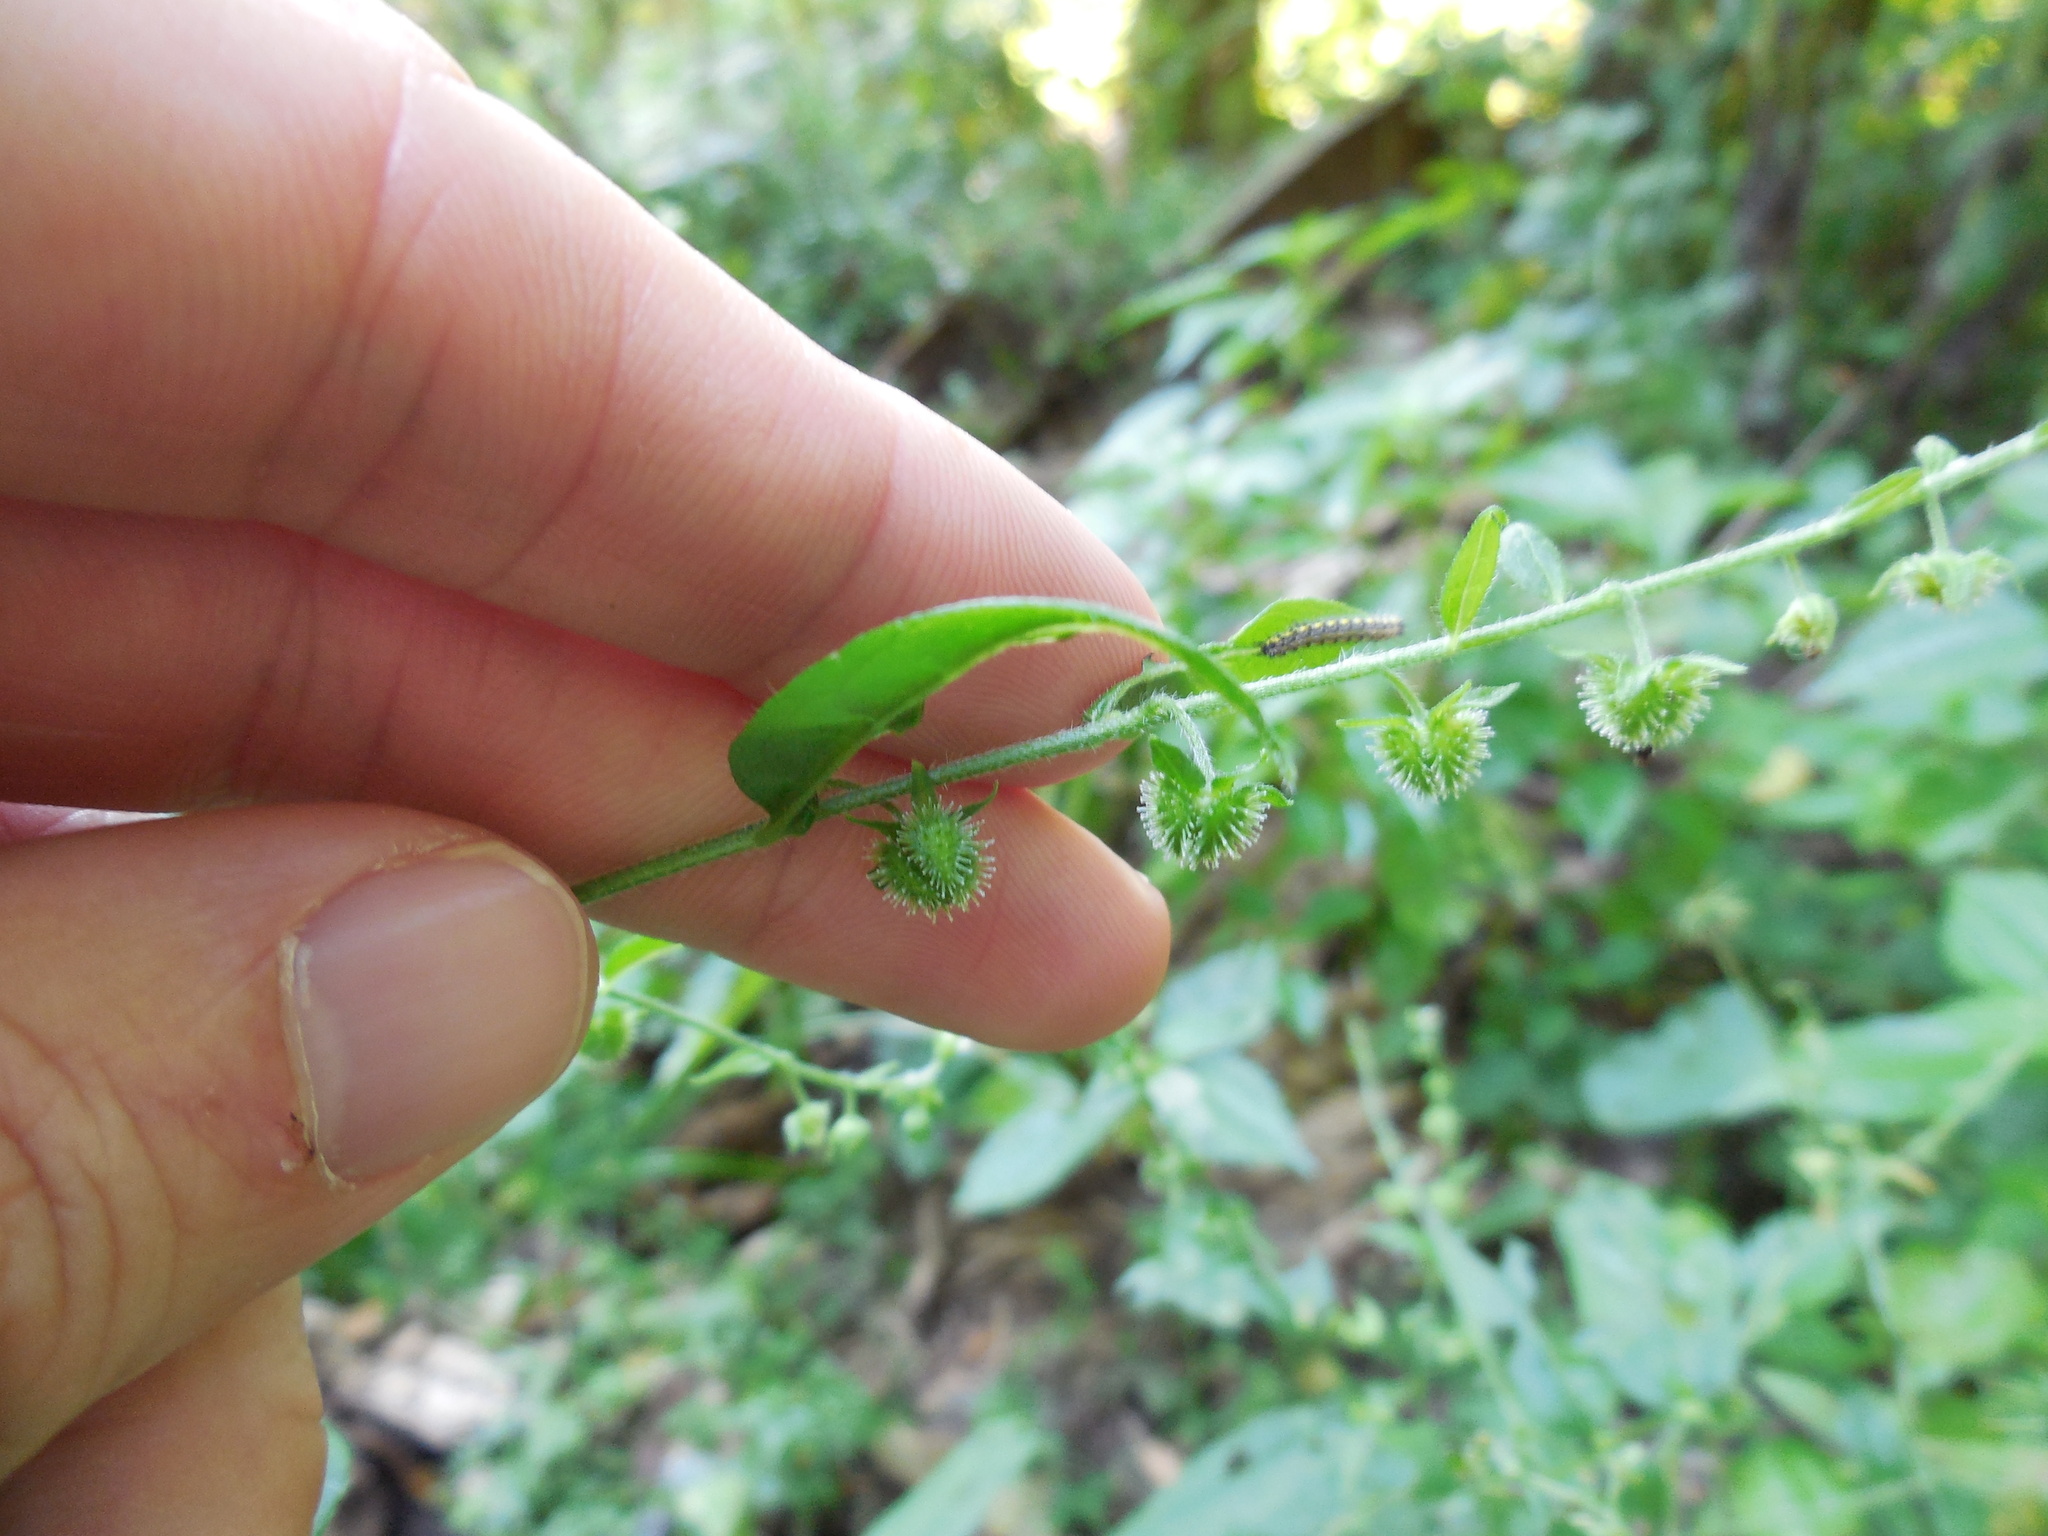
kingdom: Plantae
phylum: Tracheophyta
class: Magnoliopsida
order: Boraginales
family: Boraginaceae
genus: Hackelia
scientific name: Hackelia virginiana
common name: Beggar's-lice
